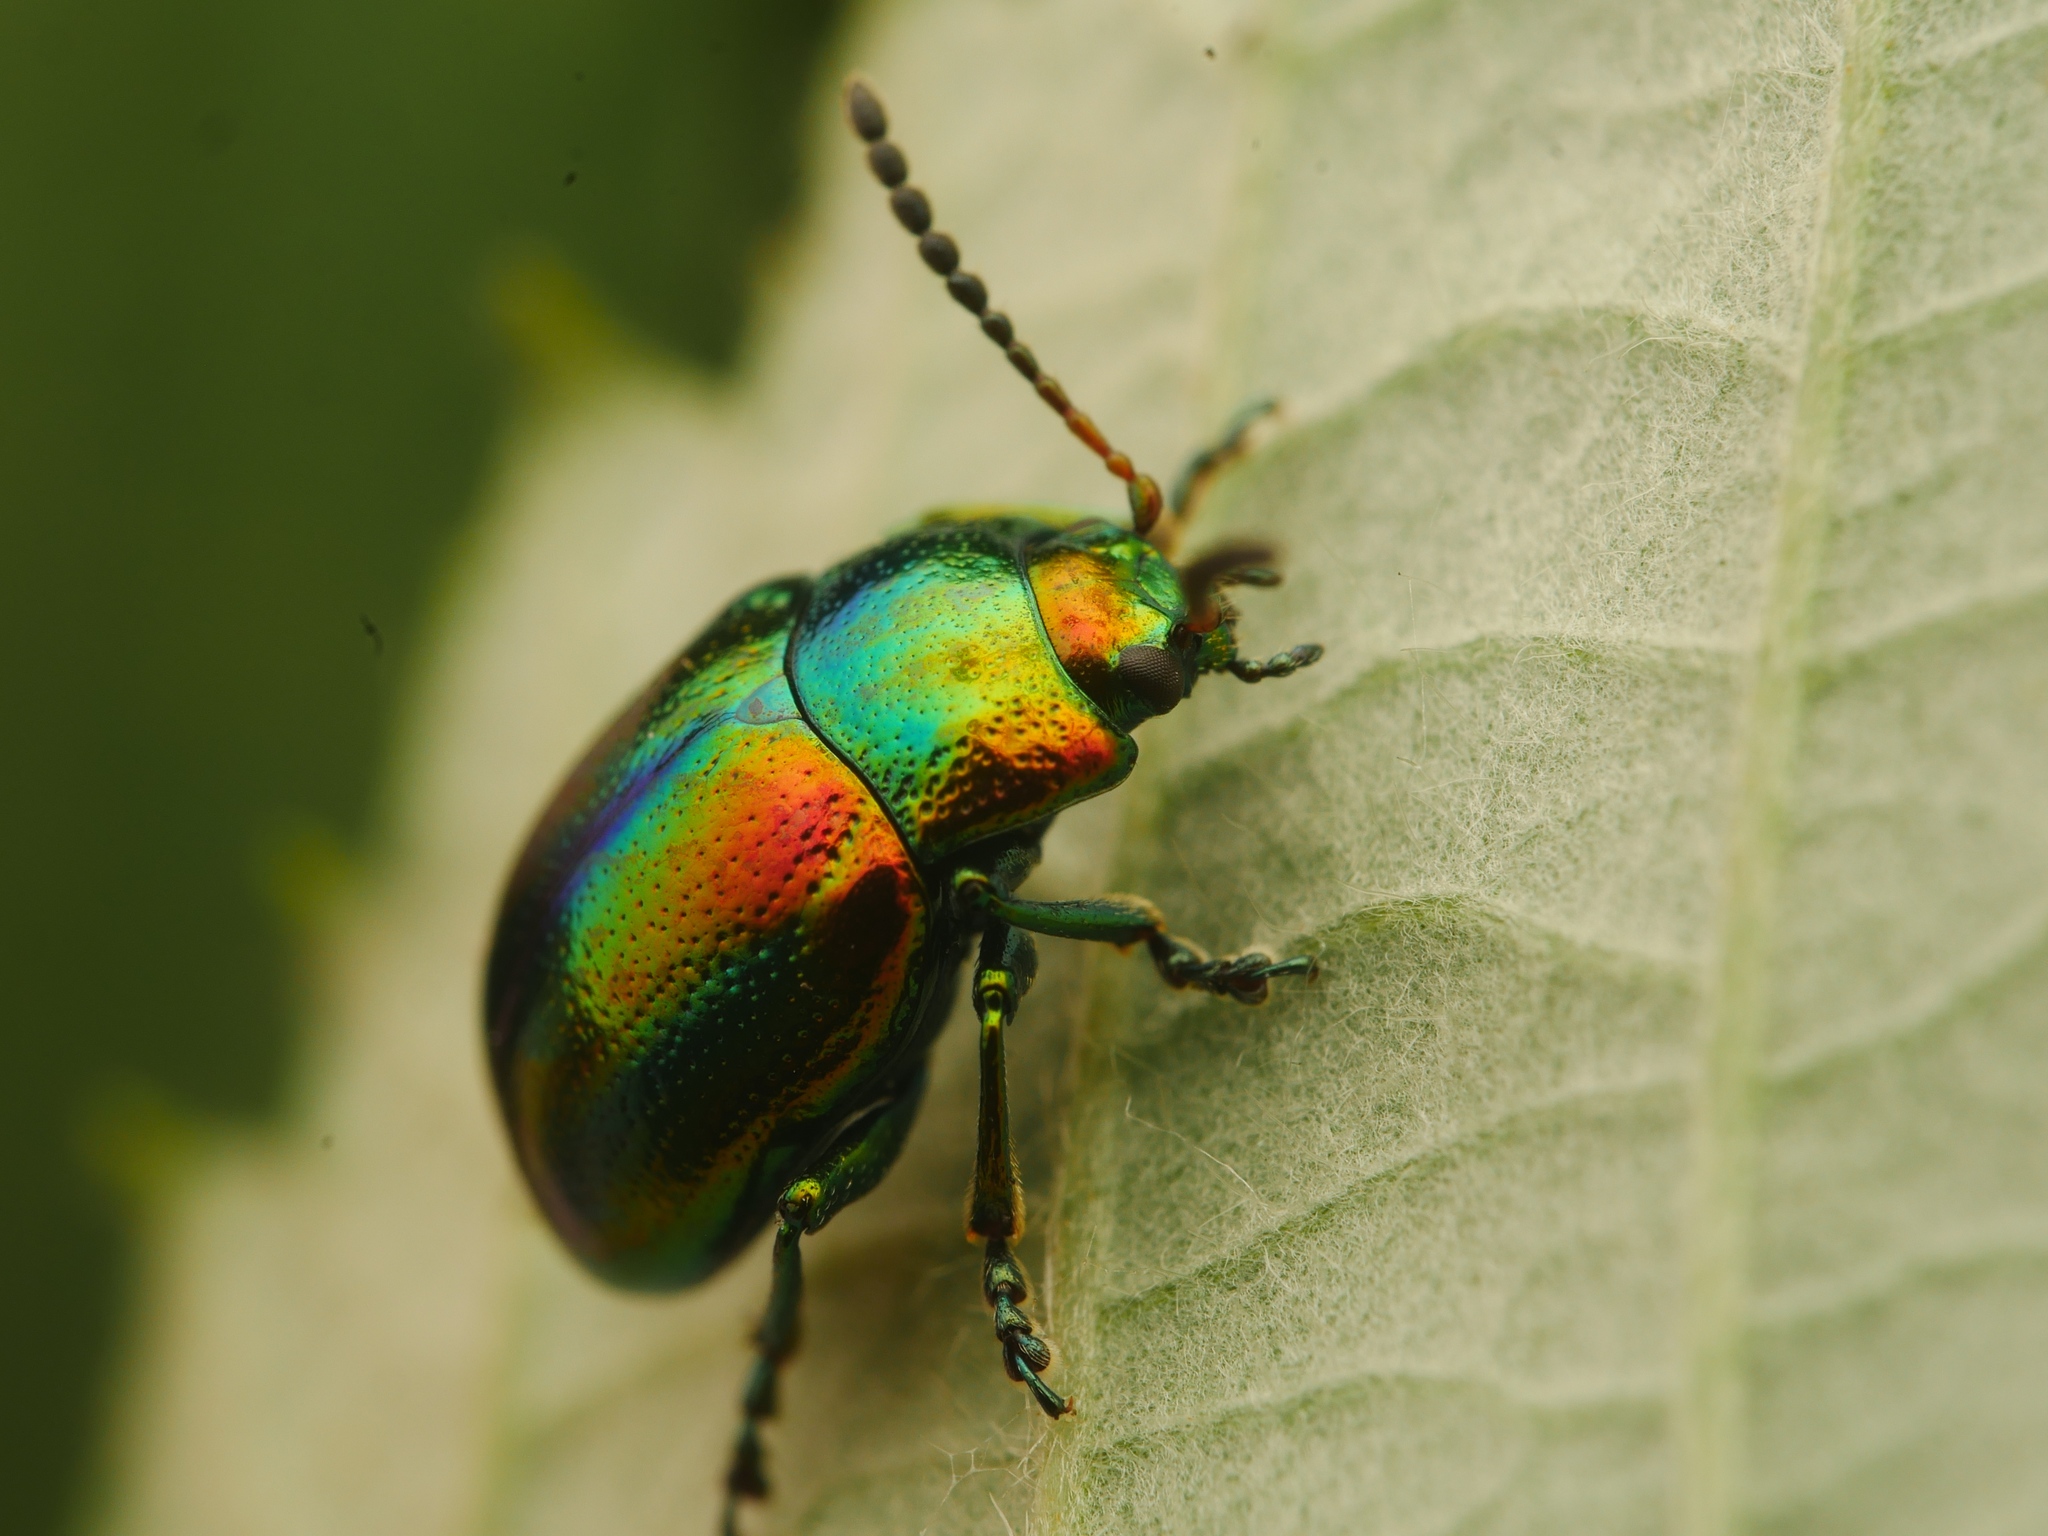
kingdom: Animalia
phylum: Arthropoda
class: Insecta
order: Coleoptera
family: Chrysomelidae
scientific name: Chrysomelidae
